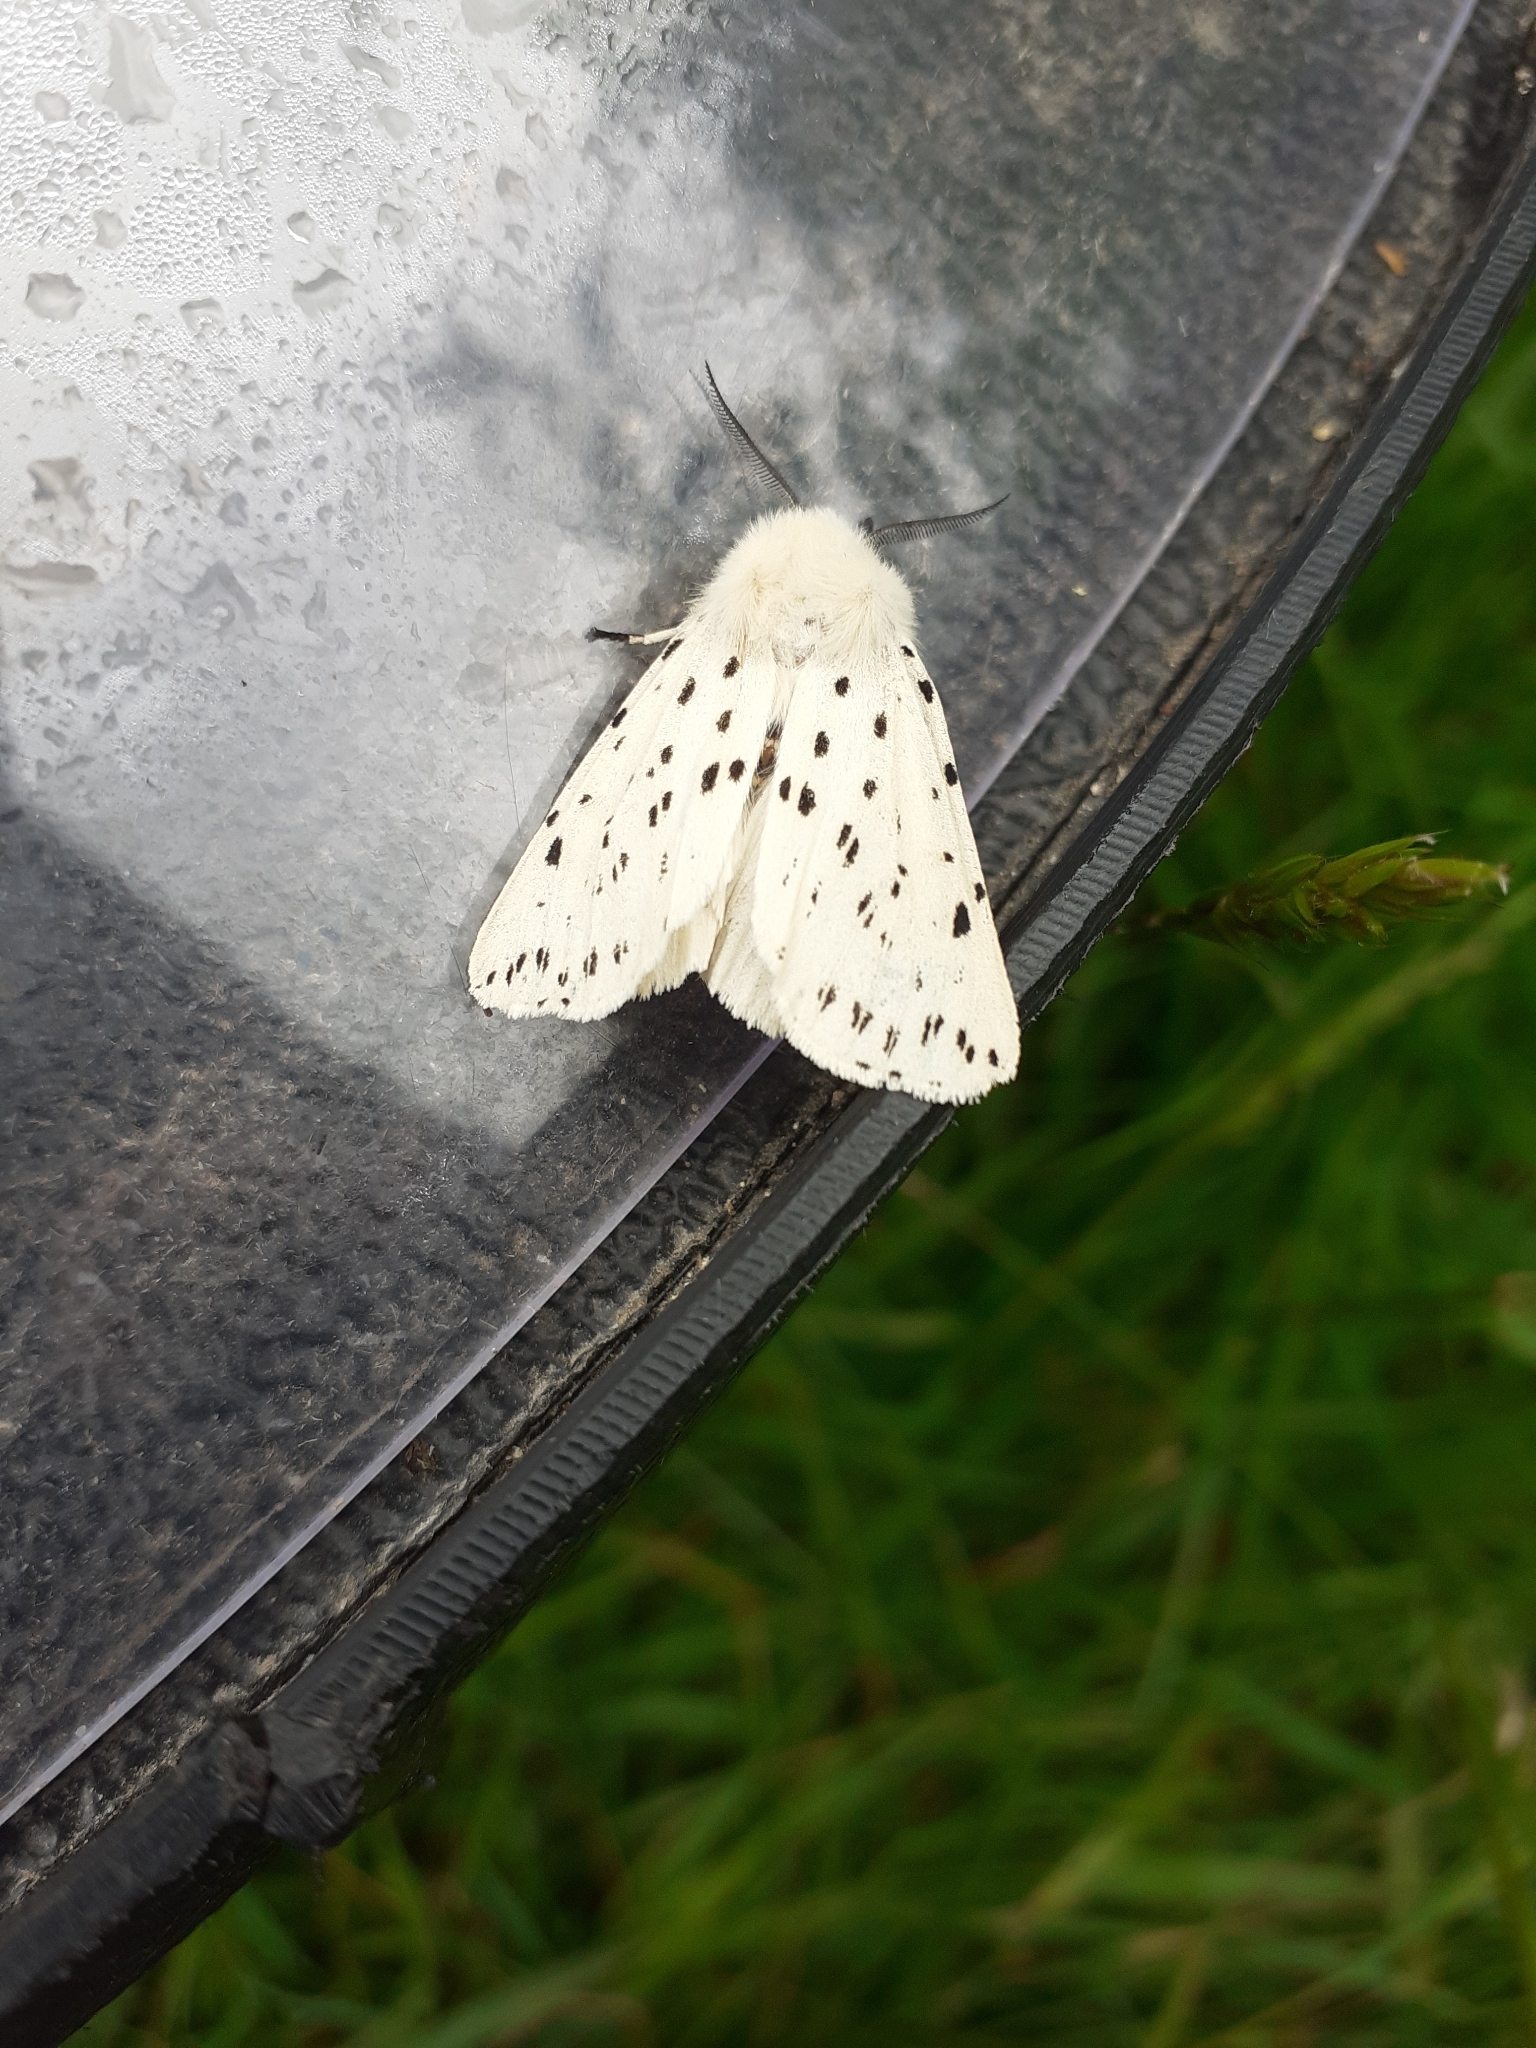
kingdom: Animalia
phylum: Arthropoda
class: Insecta
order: Lepidoptera
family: Erebidae
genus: Spilosoma
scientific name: Spilosoma lubricipeda
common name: White ermine
